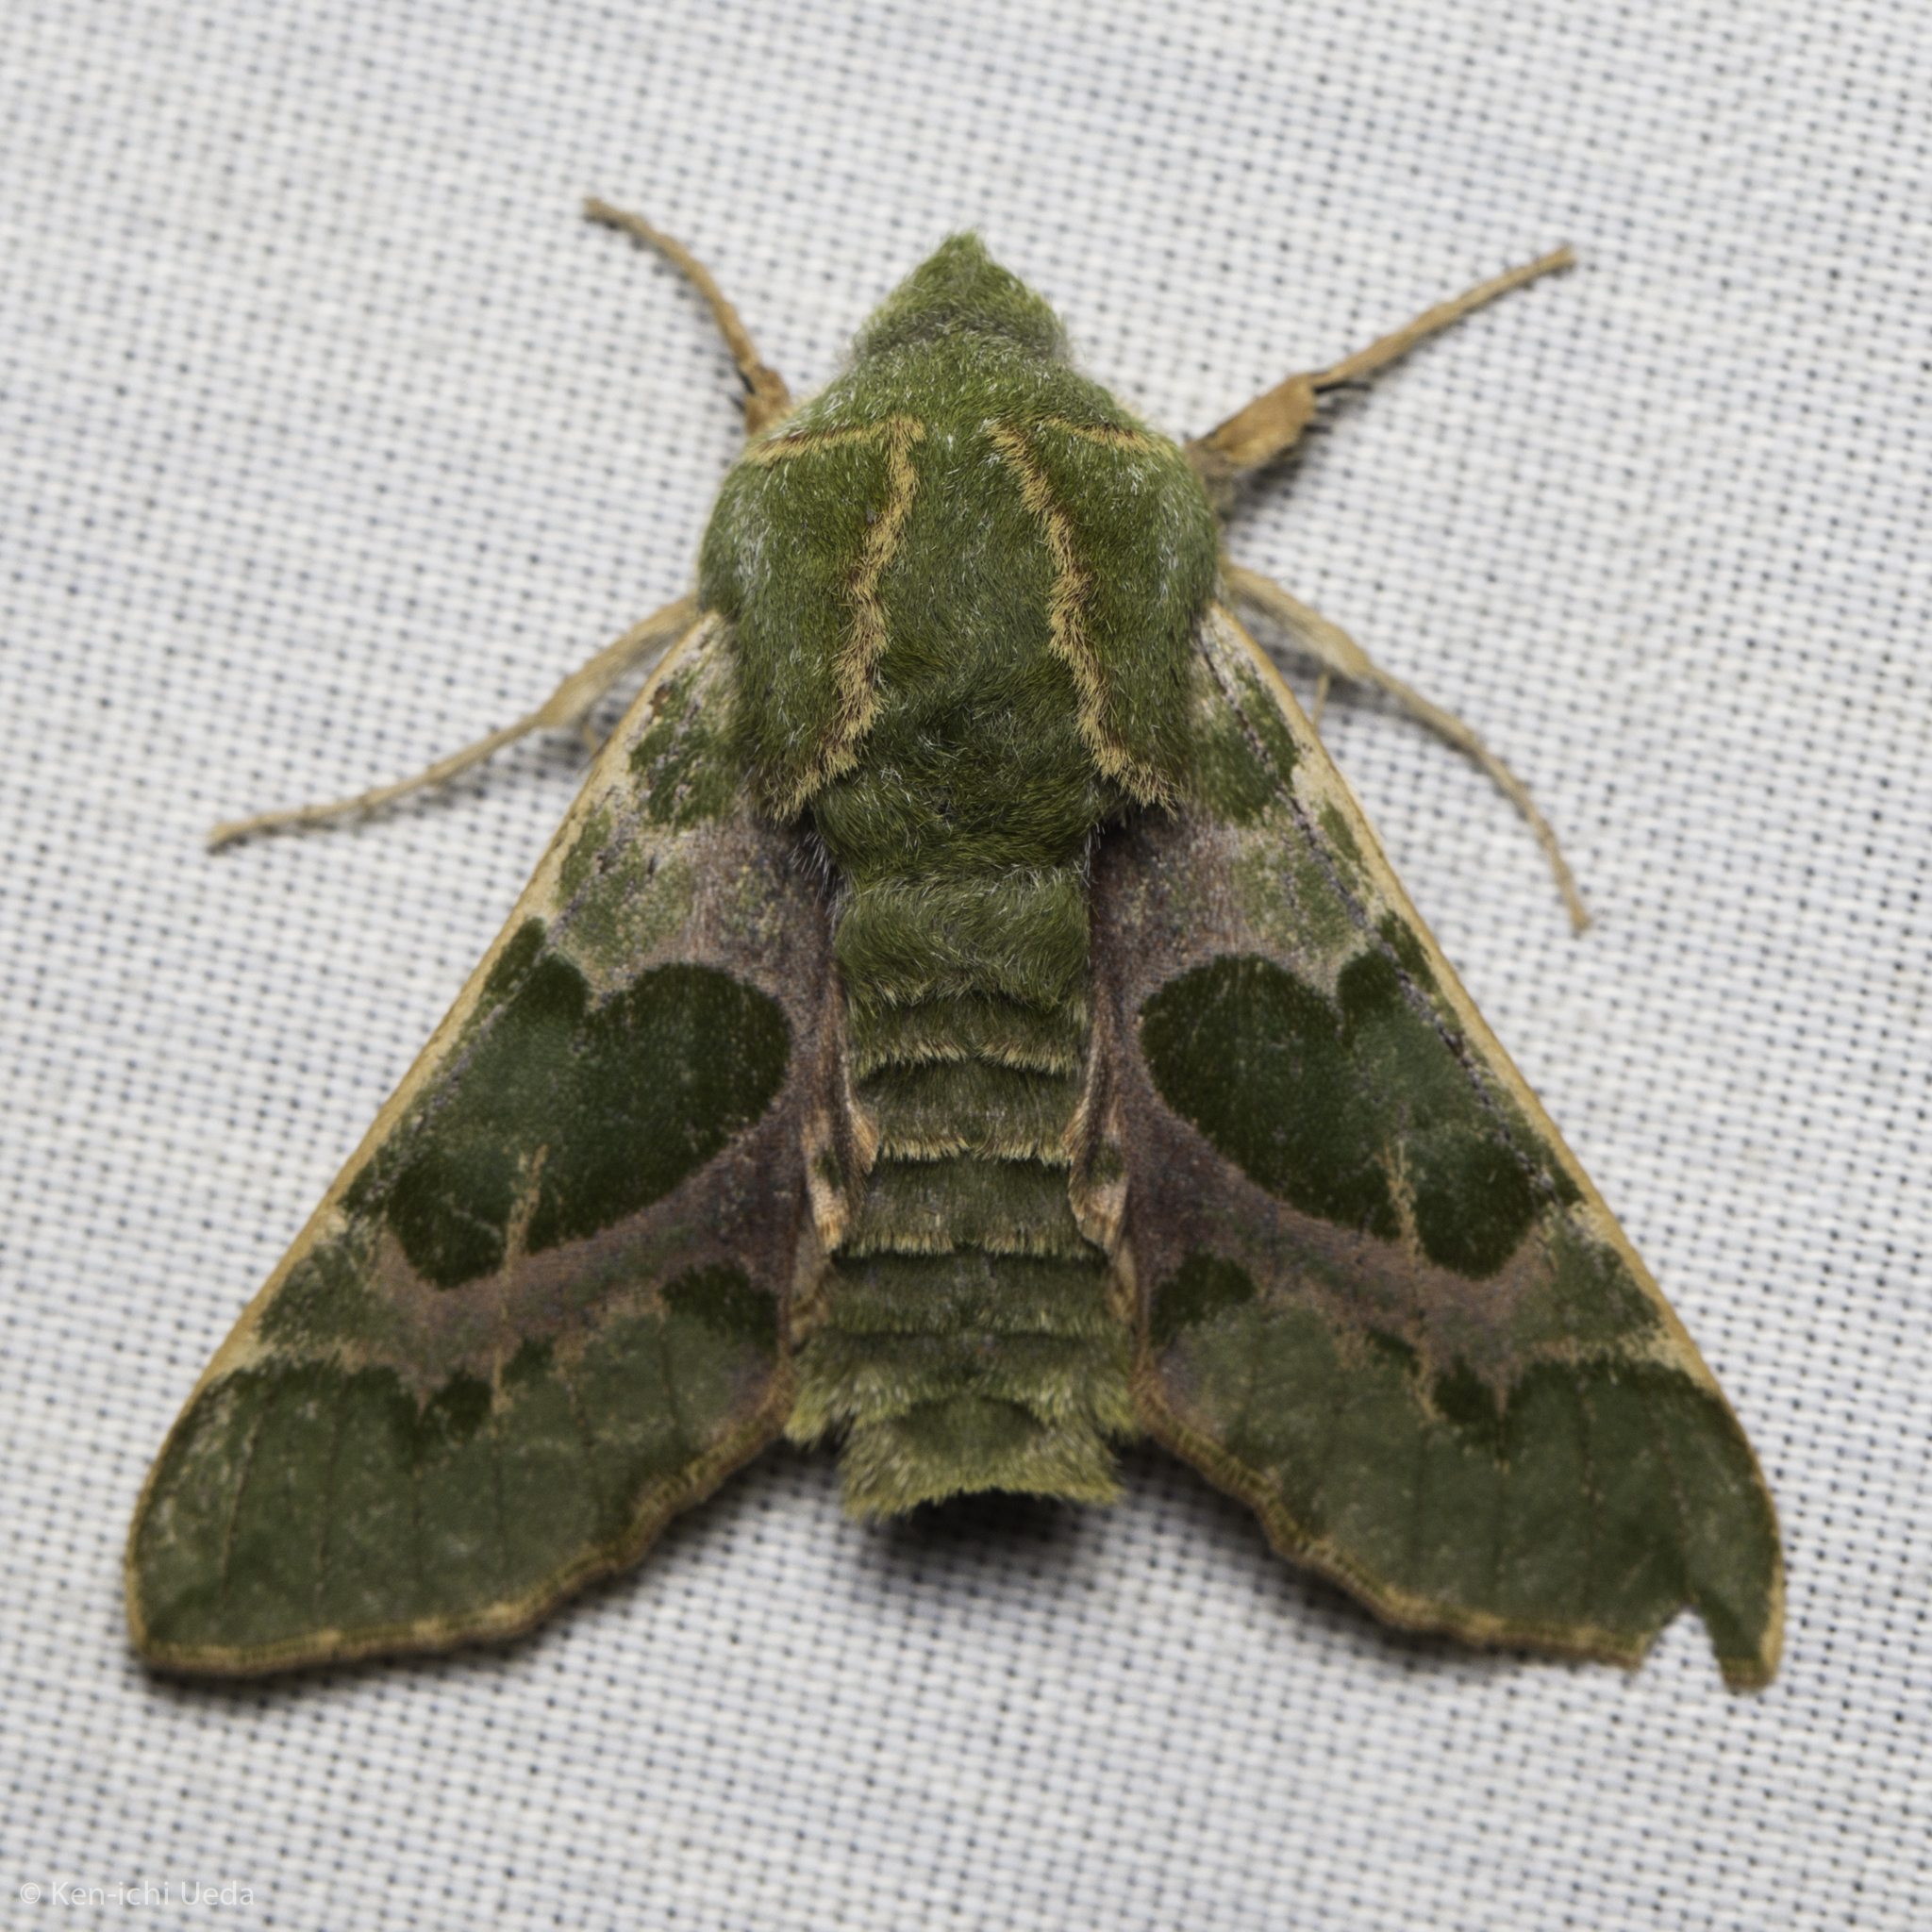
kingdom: Animalia
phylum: Arthropoda
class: Insecta
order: Lepidoptera
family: Sphingidae
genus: Proserpinus
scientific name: Proserpinus lucidus
